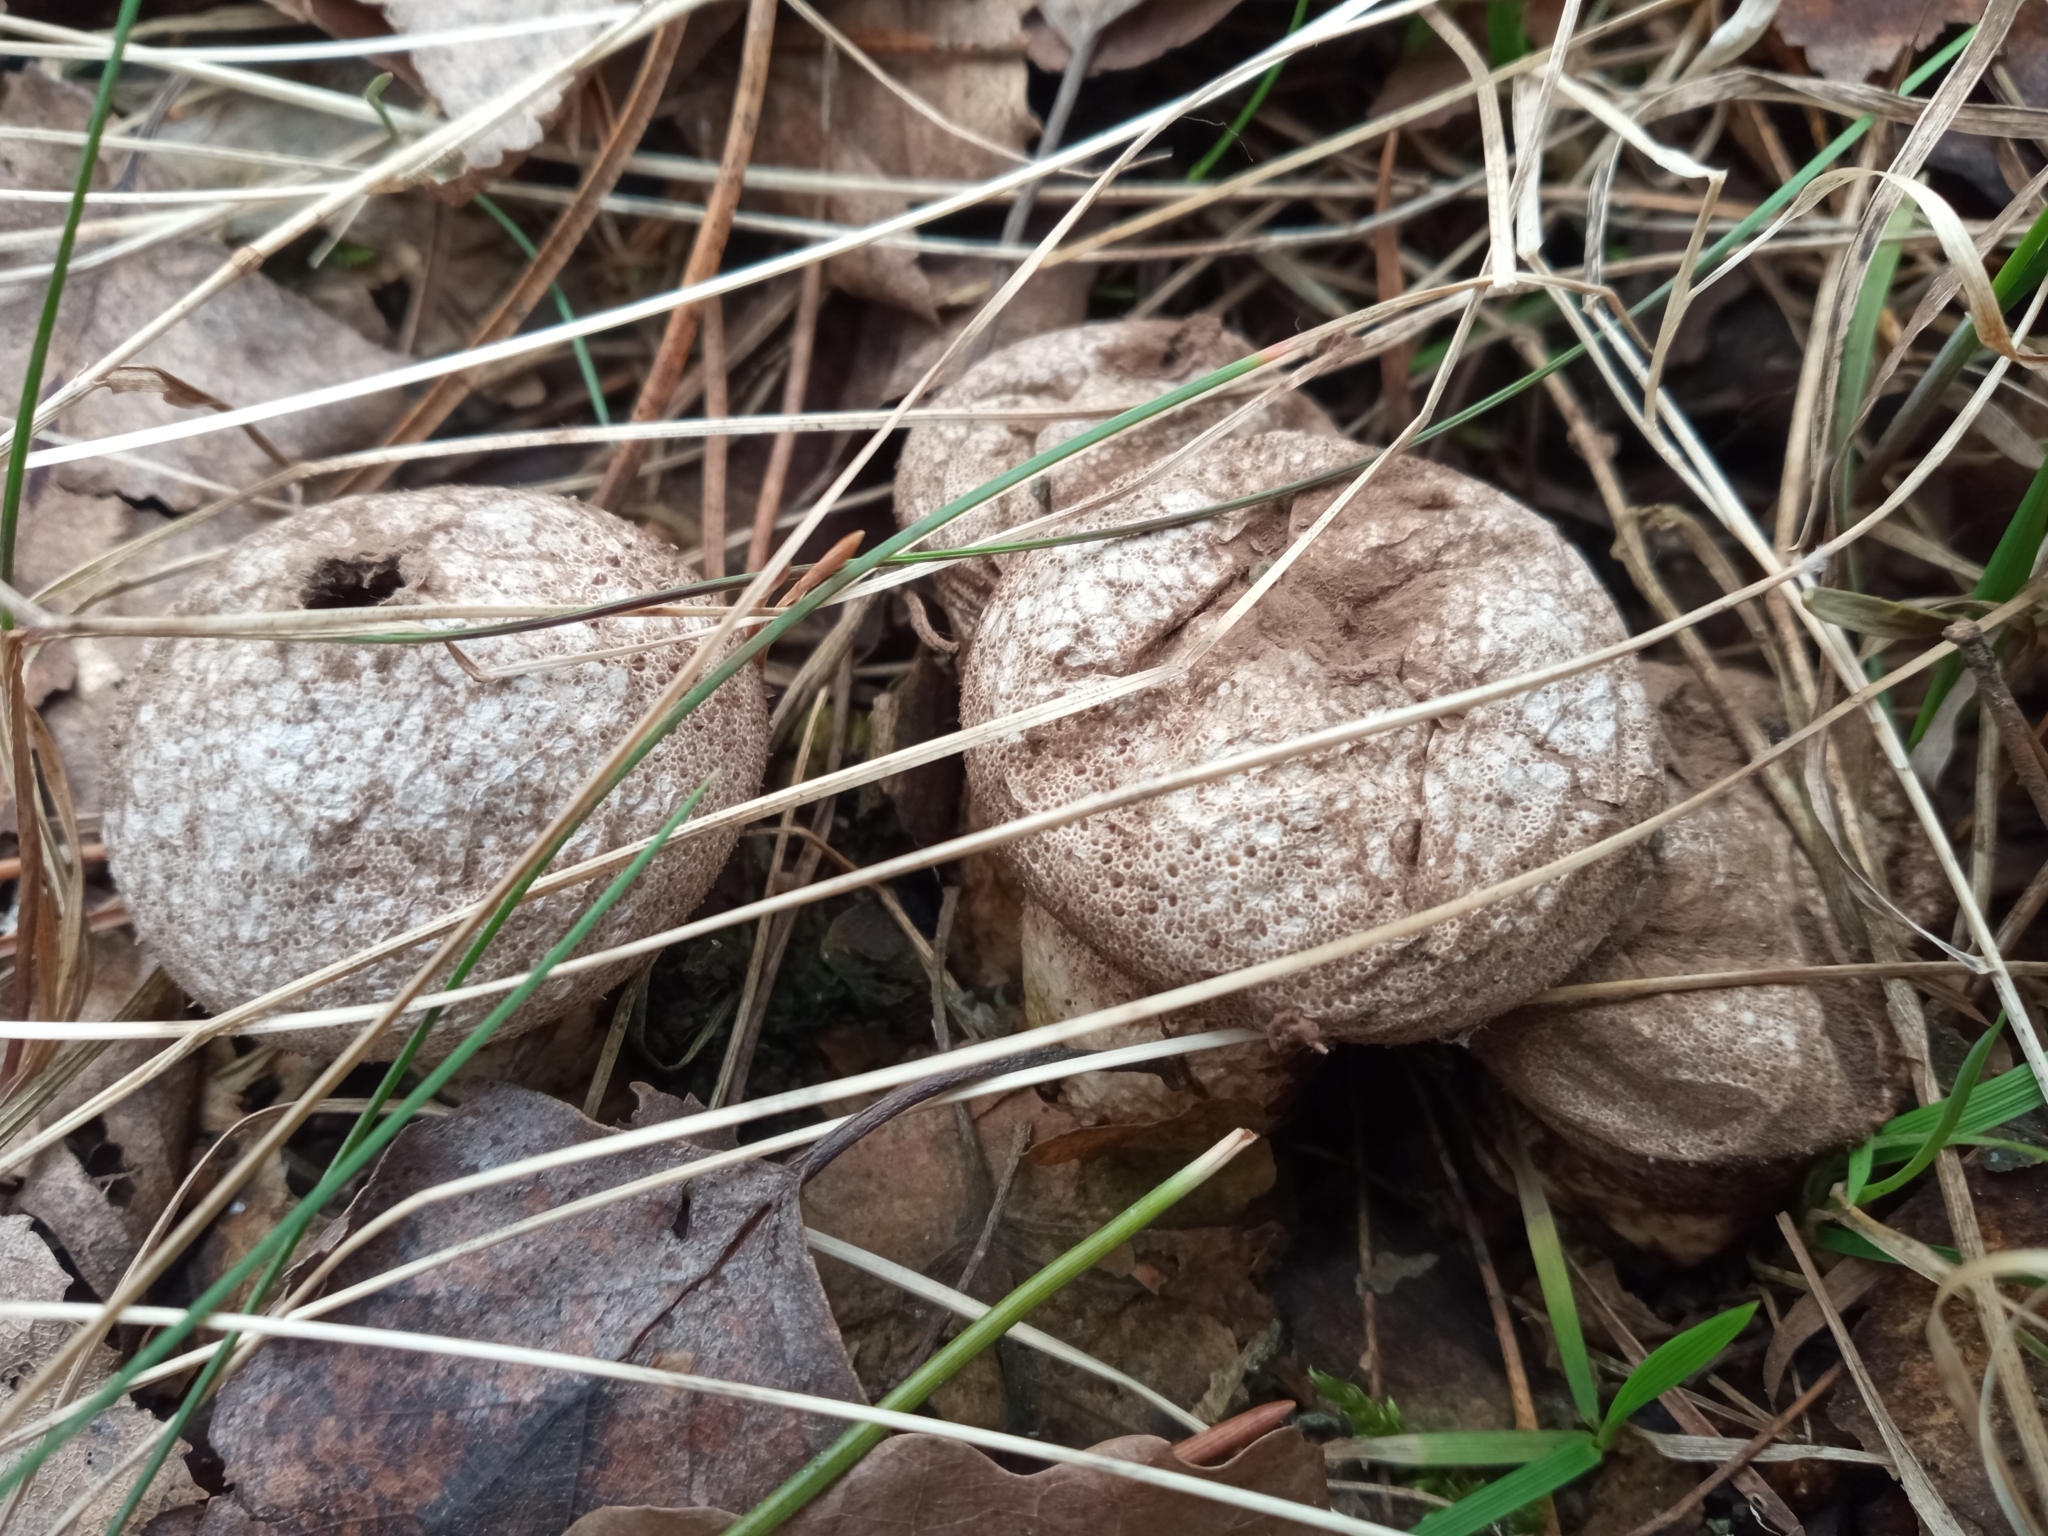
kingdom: Fungi
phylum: Basidiomycota
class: Agaricomycetes
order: Agaricales
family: Lycoperdaceae
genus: Lycoperdon
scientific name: Lycoperdon perlatum
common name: Common puffball
